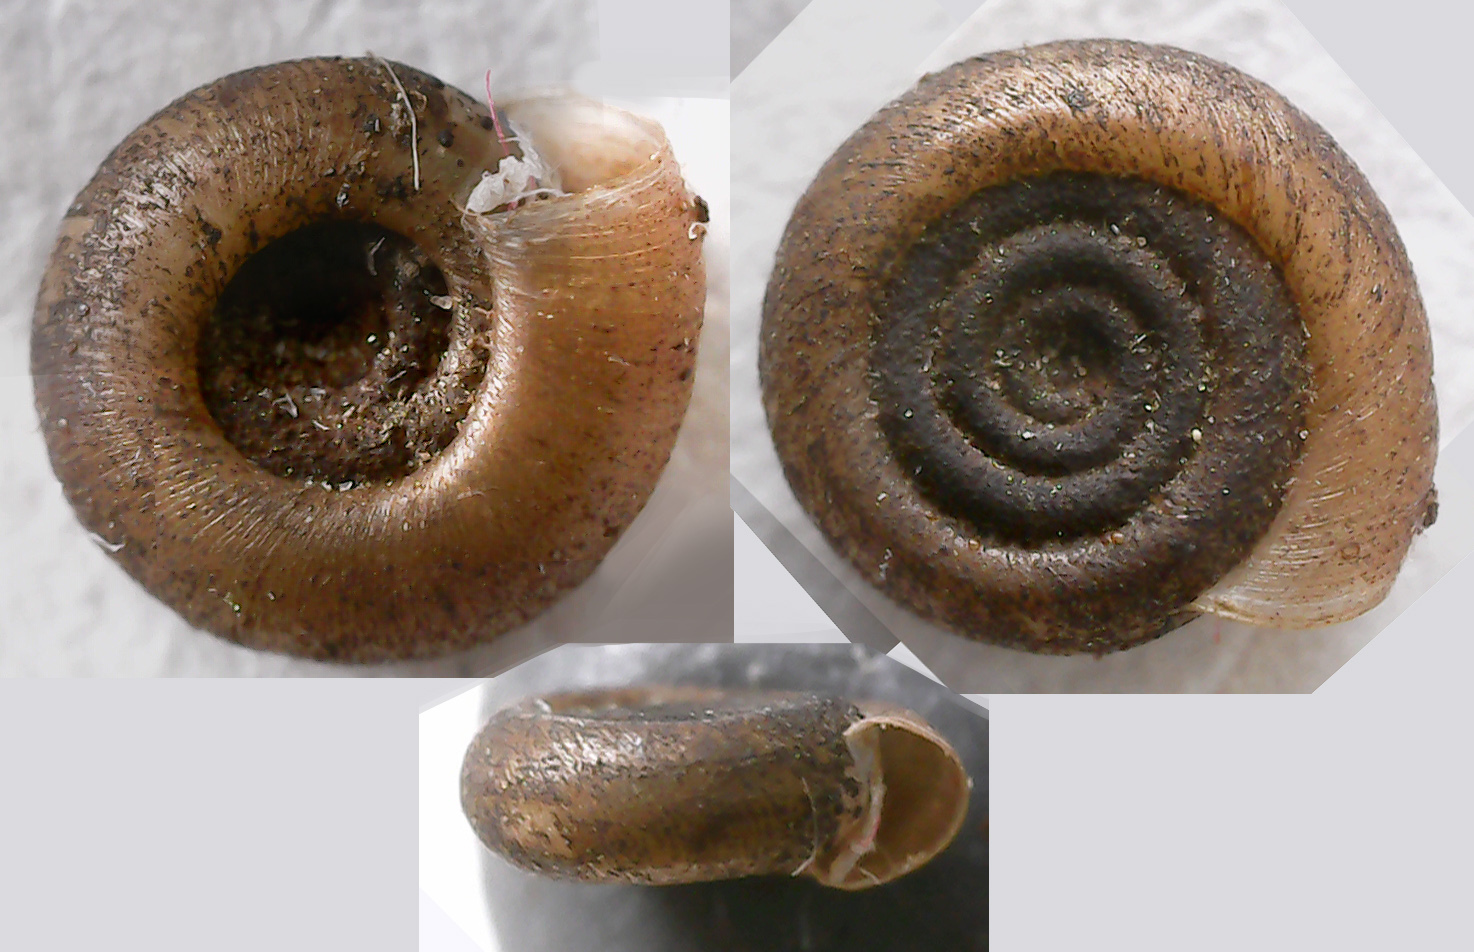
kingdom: Animalia
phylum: Mollusca
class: Gastropoda
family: Planorbidae
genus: Bathyomphalus
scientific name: Bathyomphalus contortus
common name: Twisted ramshorn
